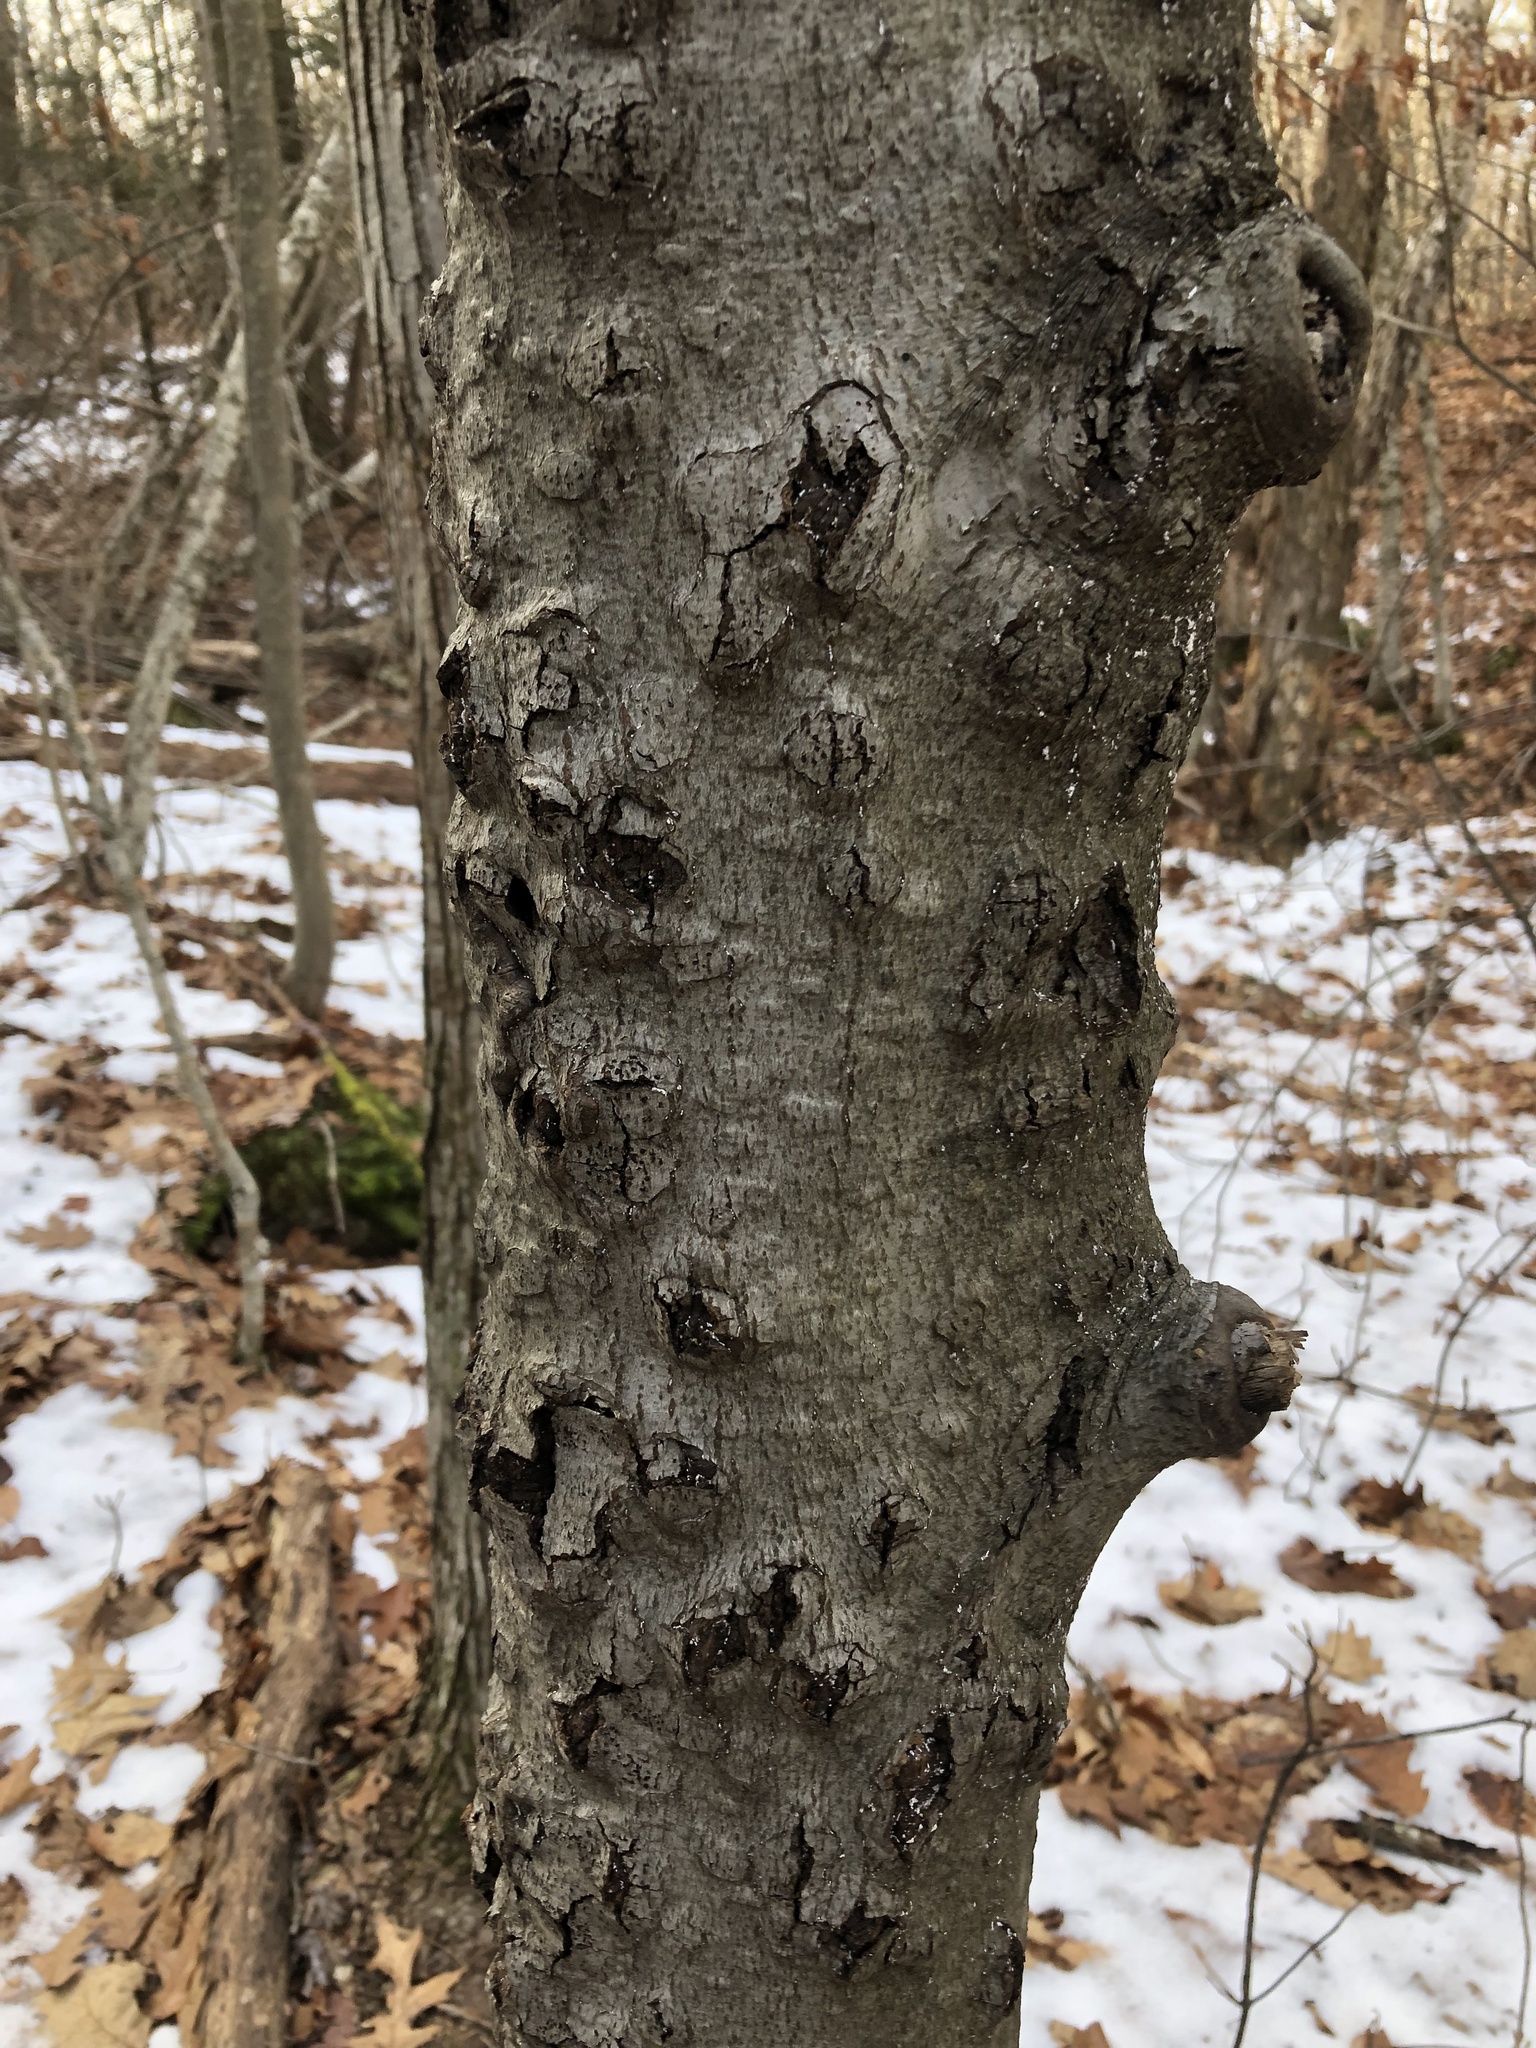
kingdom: Fungi
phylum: Ascomycota
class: Sordariomycetes
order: Hypocreales
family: Nectriaceae
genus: Neonectria
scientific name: Neonectria faginata
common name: Beech bark canker
